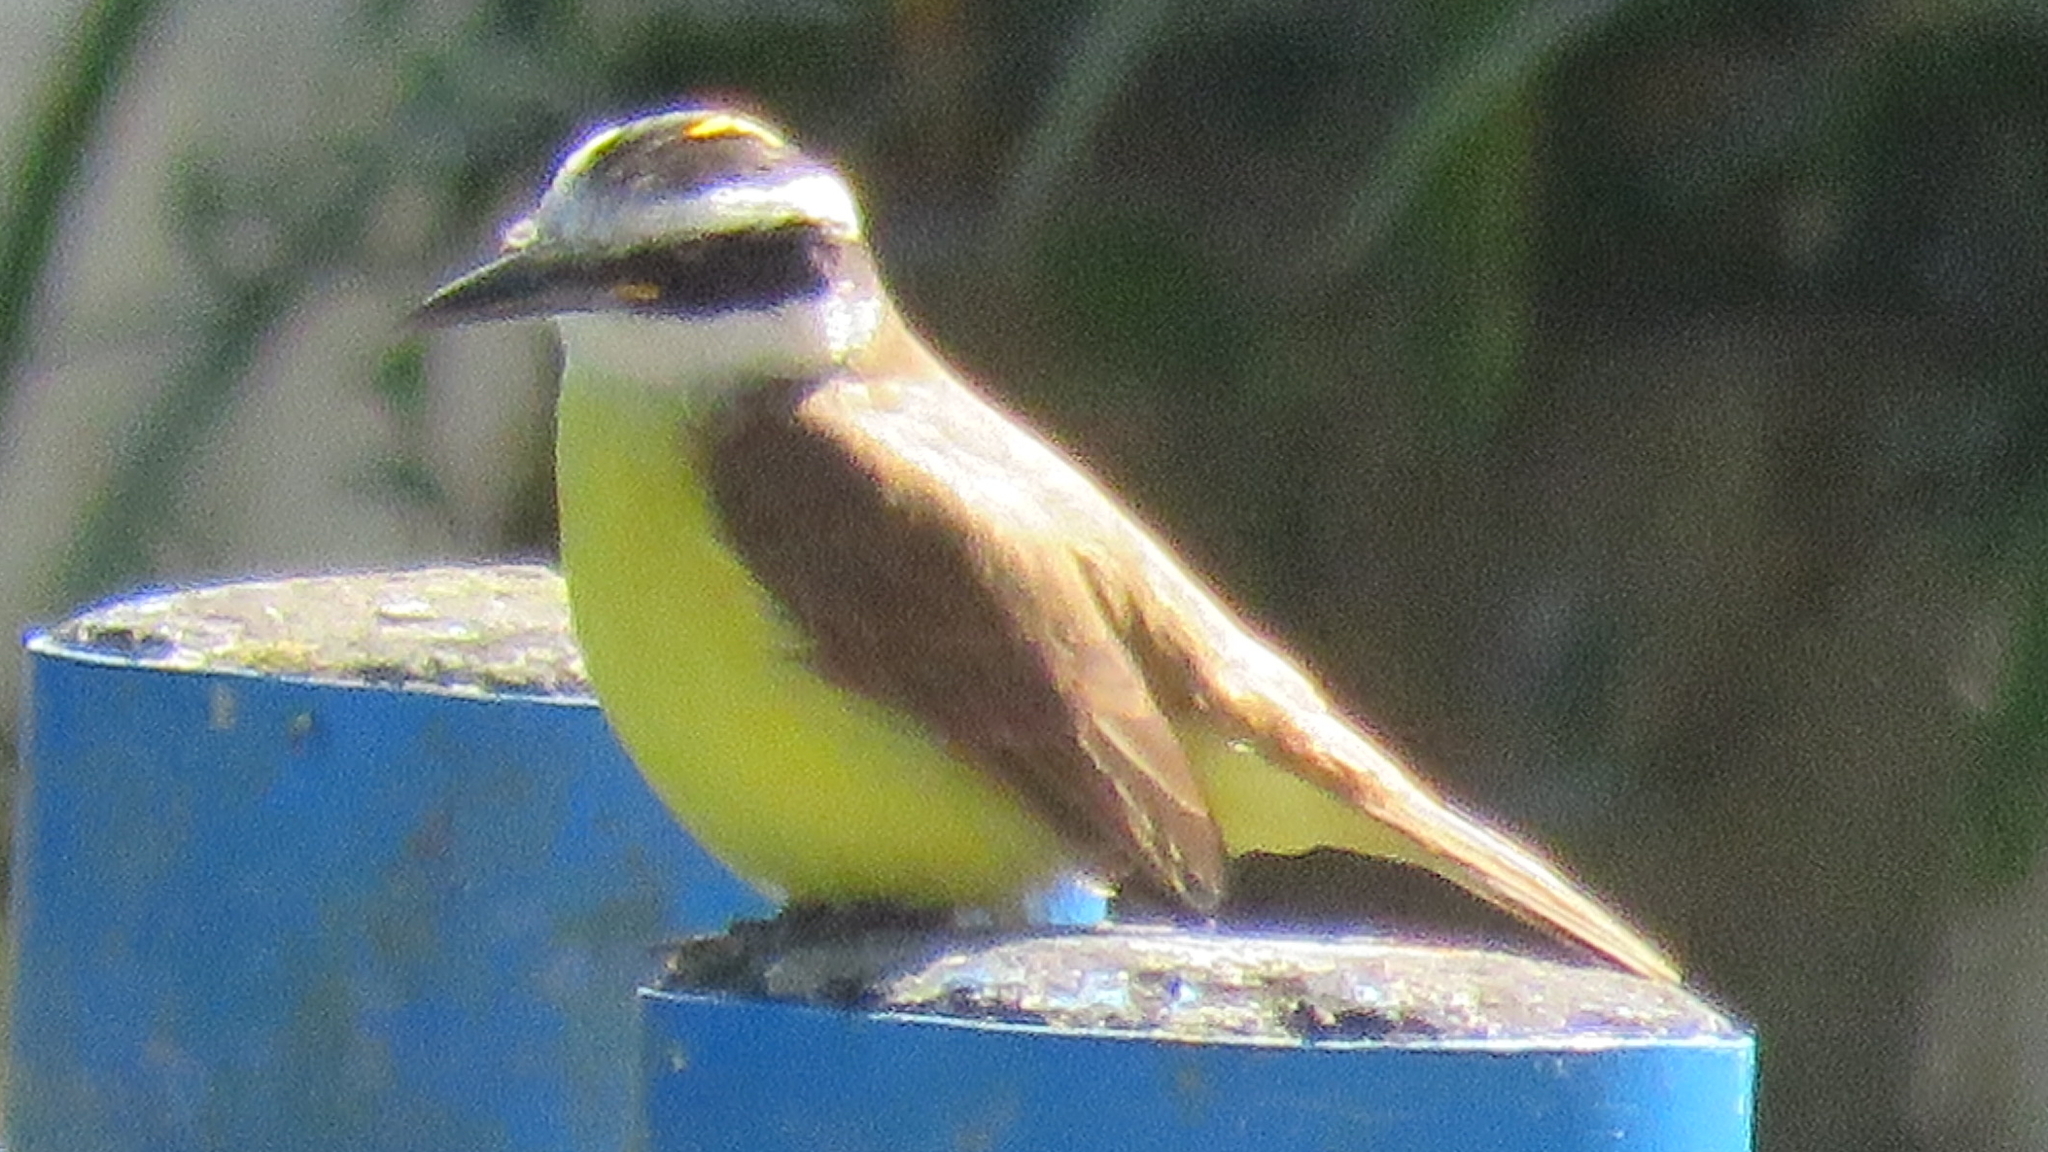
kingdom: Animalia
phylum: Chordata
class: Aves
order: Passeriformes
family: Tyrannidae
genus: Pitangus
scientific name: Pitangus sulphuratus
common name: Great kiskadee
